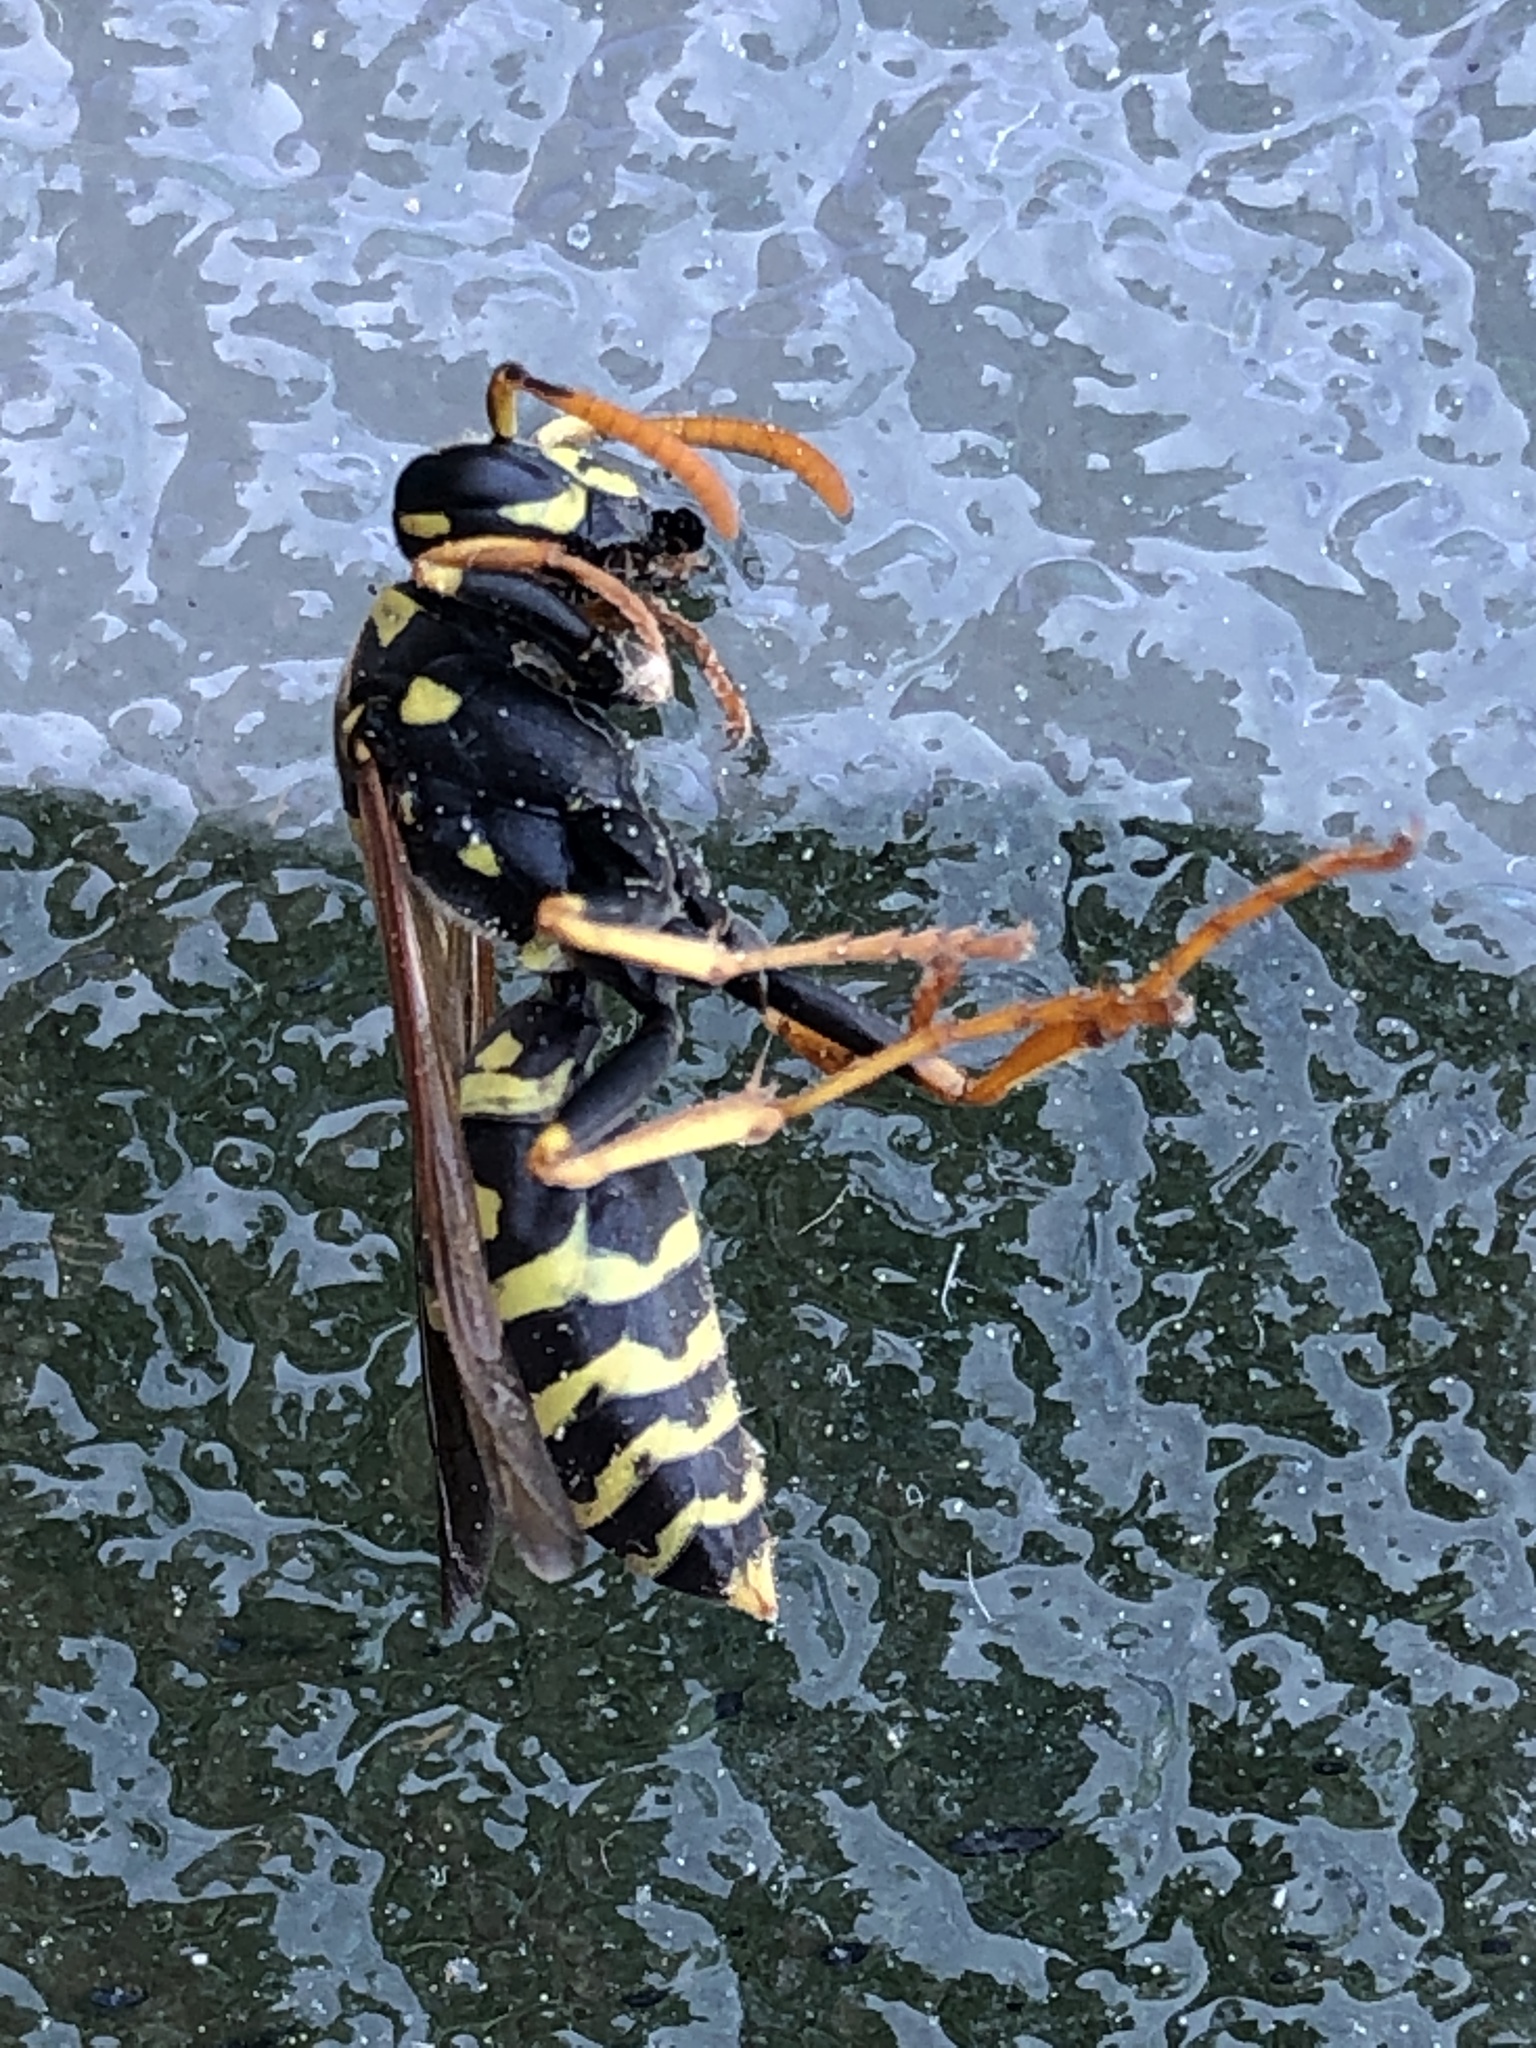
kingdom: Animalia
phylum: Arthropoda
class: Insecta
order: Hymenoptera
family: Eumenidae
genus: Polistes
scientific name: Polistes dominula
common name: Paper wasp
